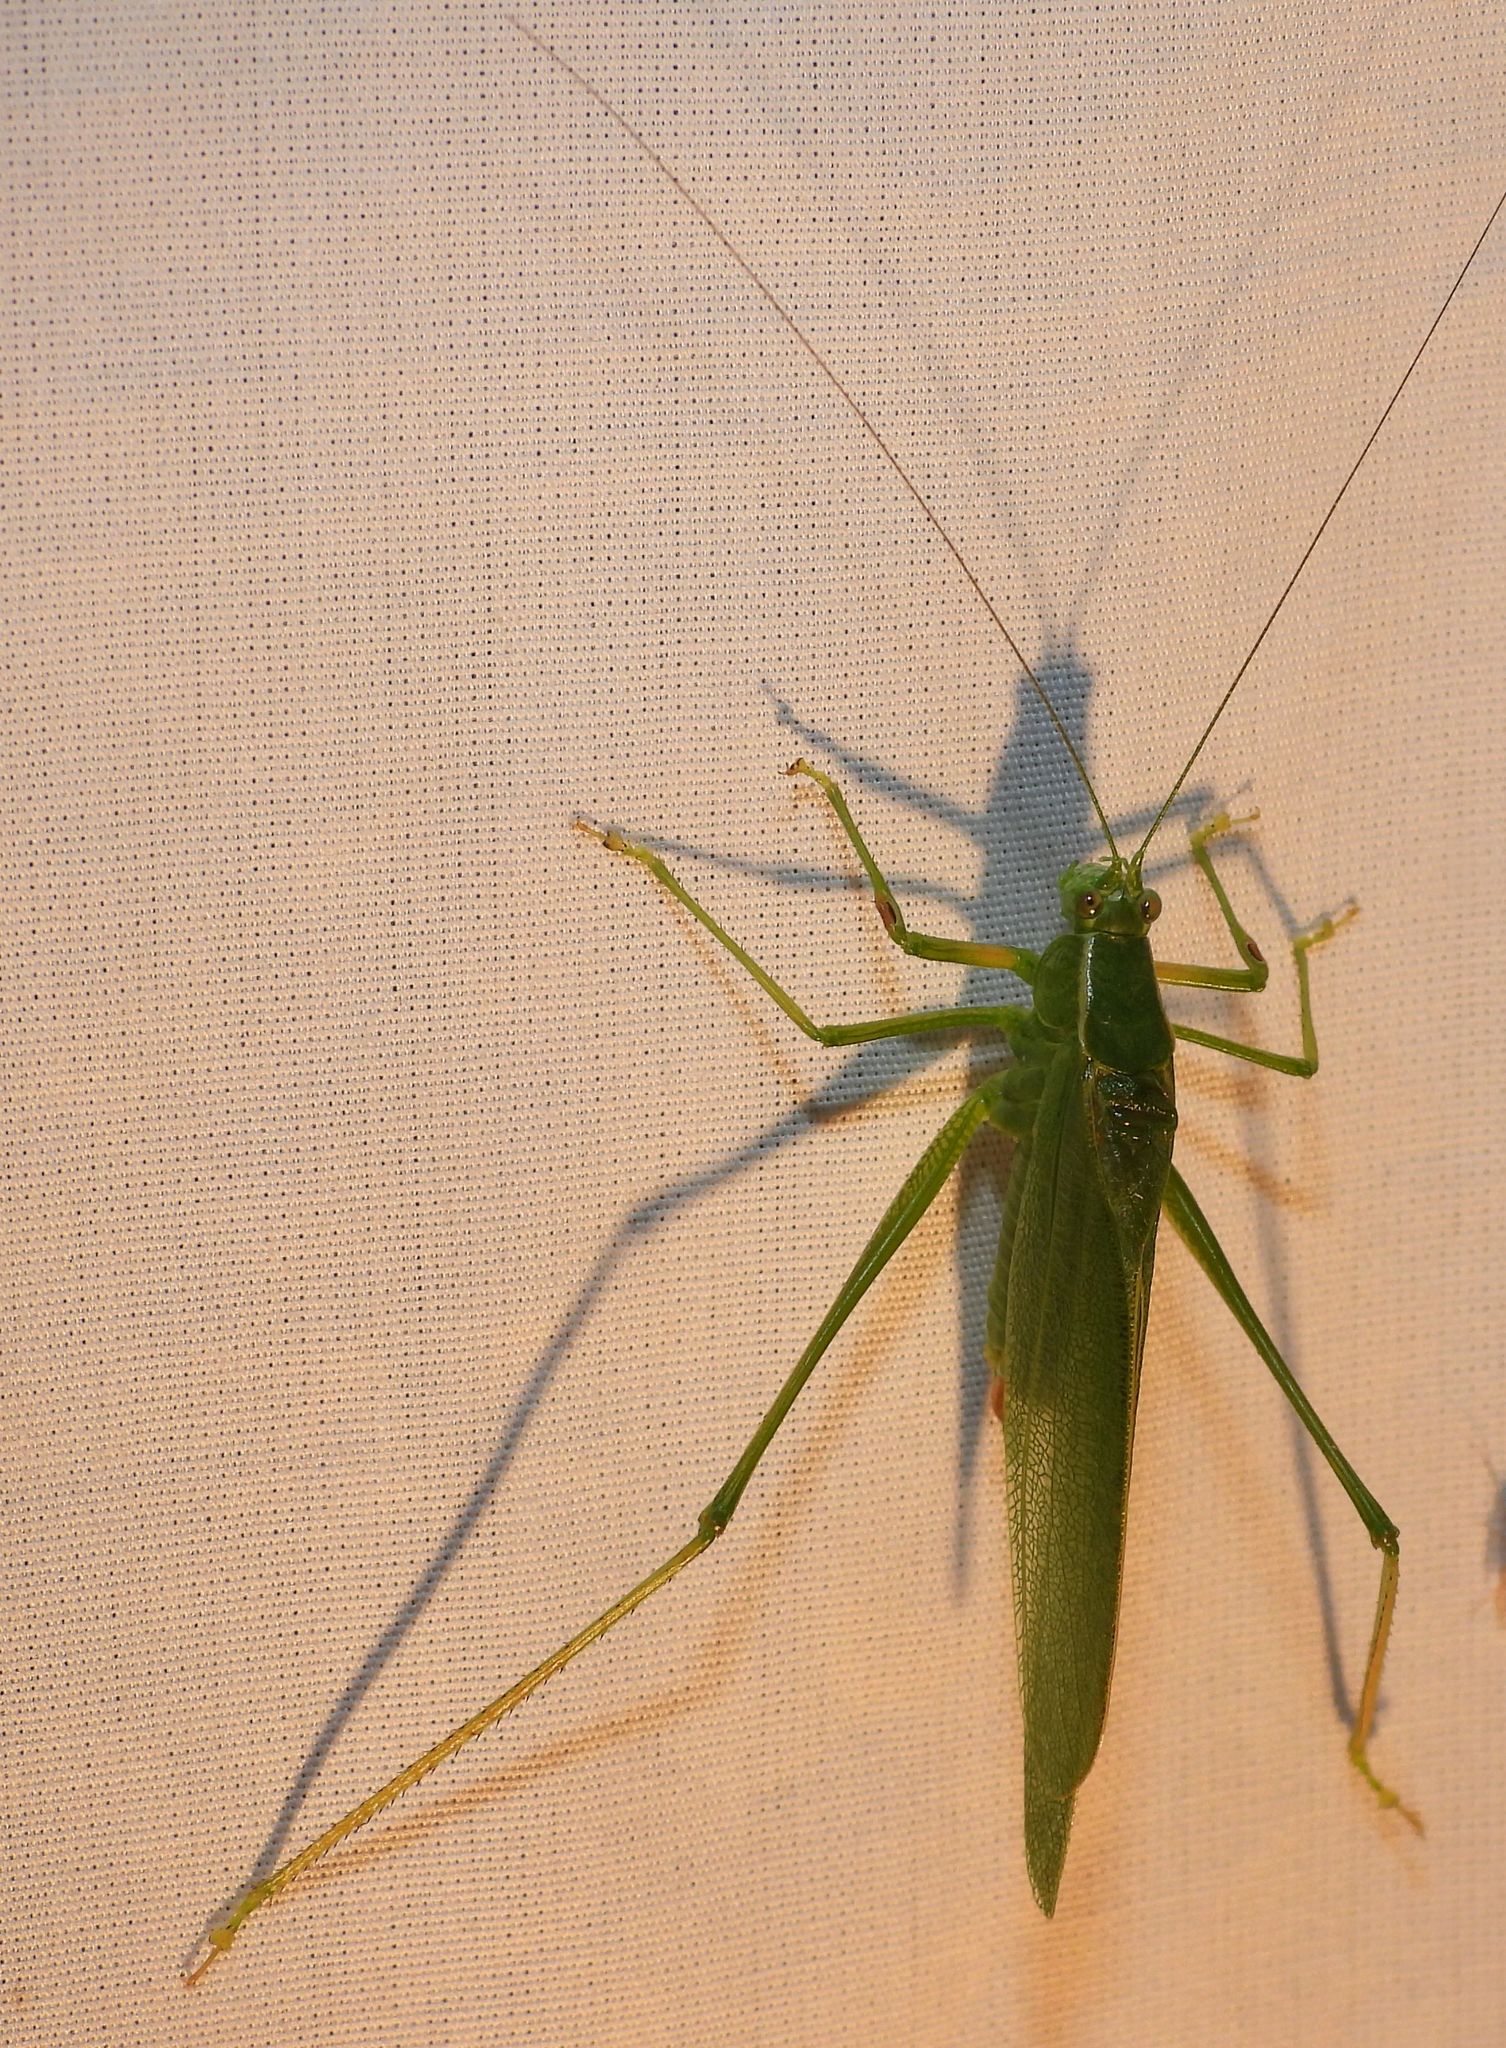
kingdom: Animalia
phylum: Arthropoda
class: Insecta
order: Orthoptera
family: Tettigoniidae
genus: Scudderia
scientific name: Scudderia septentrionalis
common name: Northern bush-katydid
